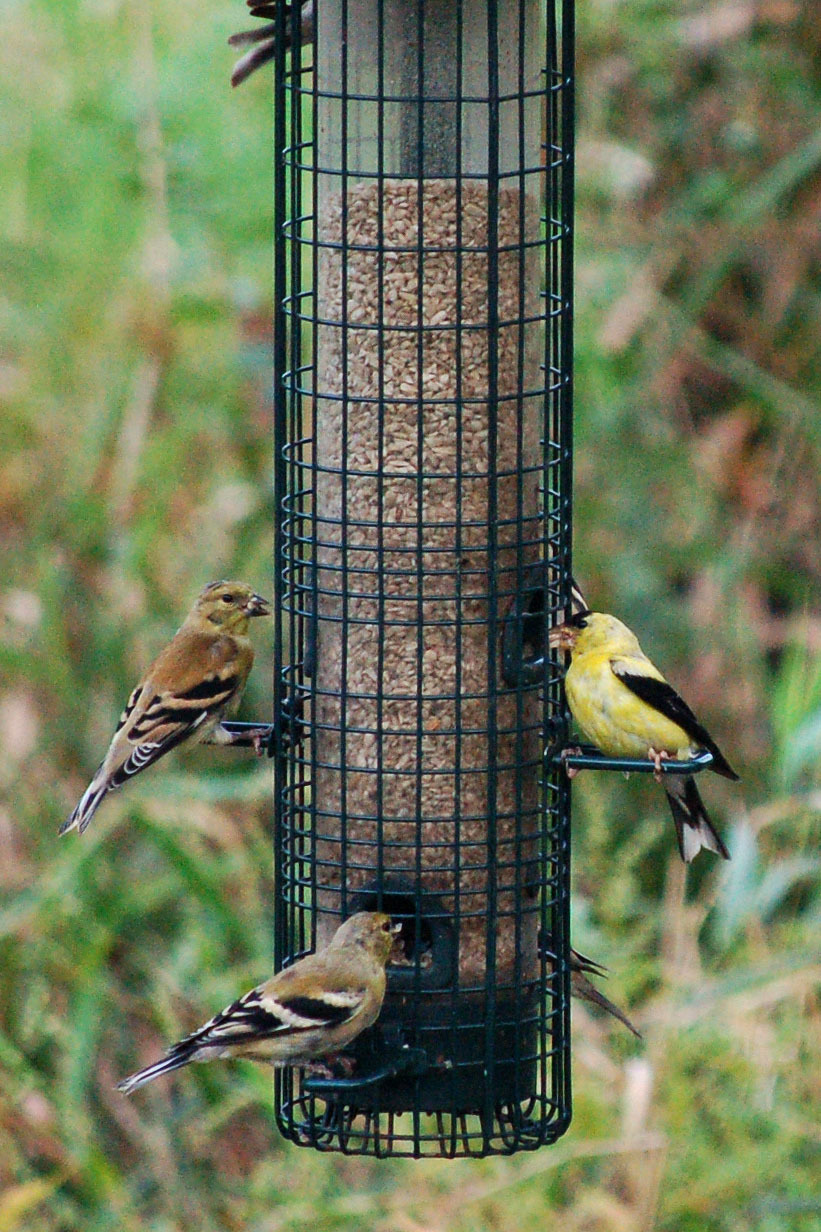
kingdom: Animalia
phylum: Chordata
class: Aves
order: Passeriformes
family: Fringillidae
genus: Spinus
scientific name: Spinus tristis
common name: American goldfinch
